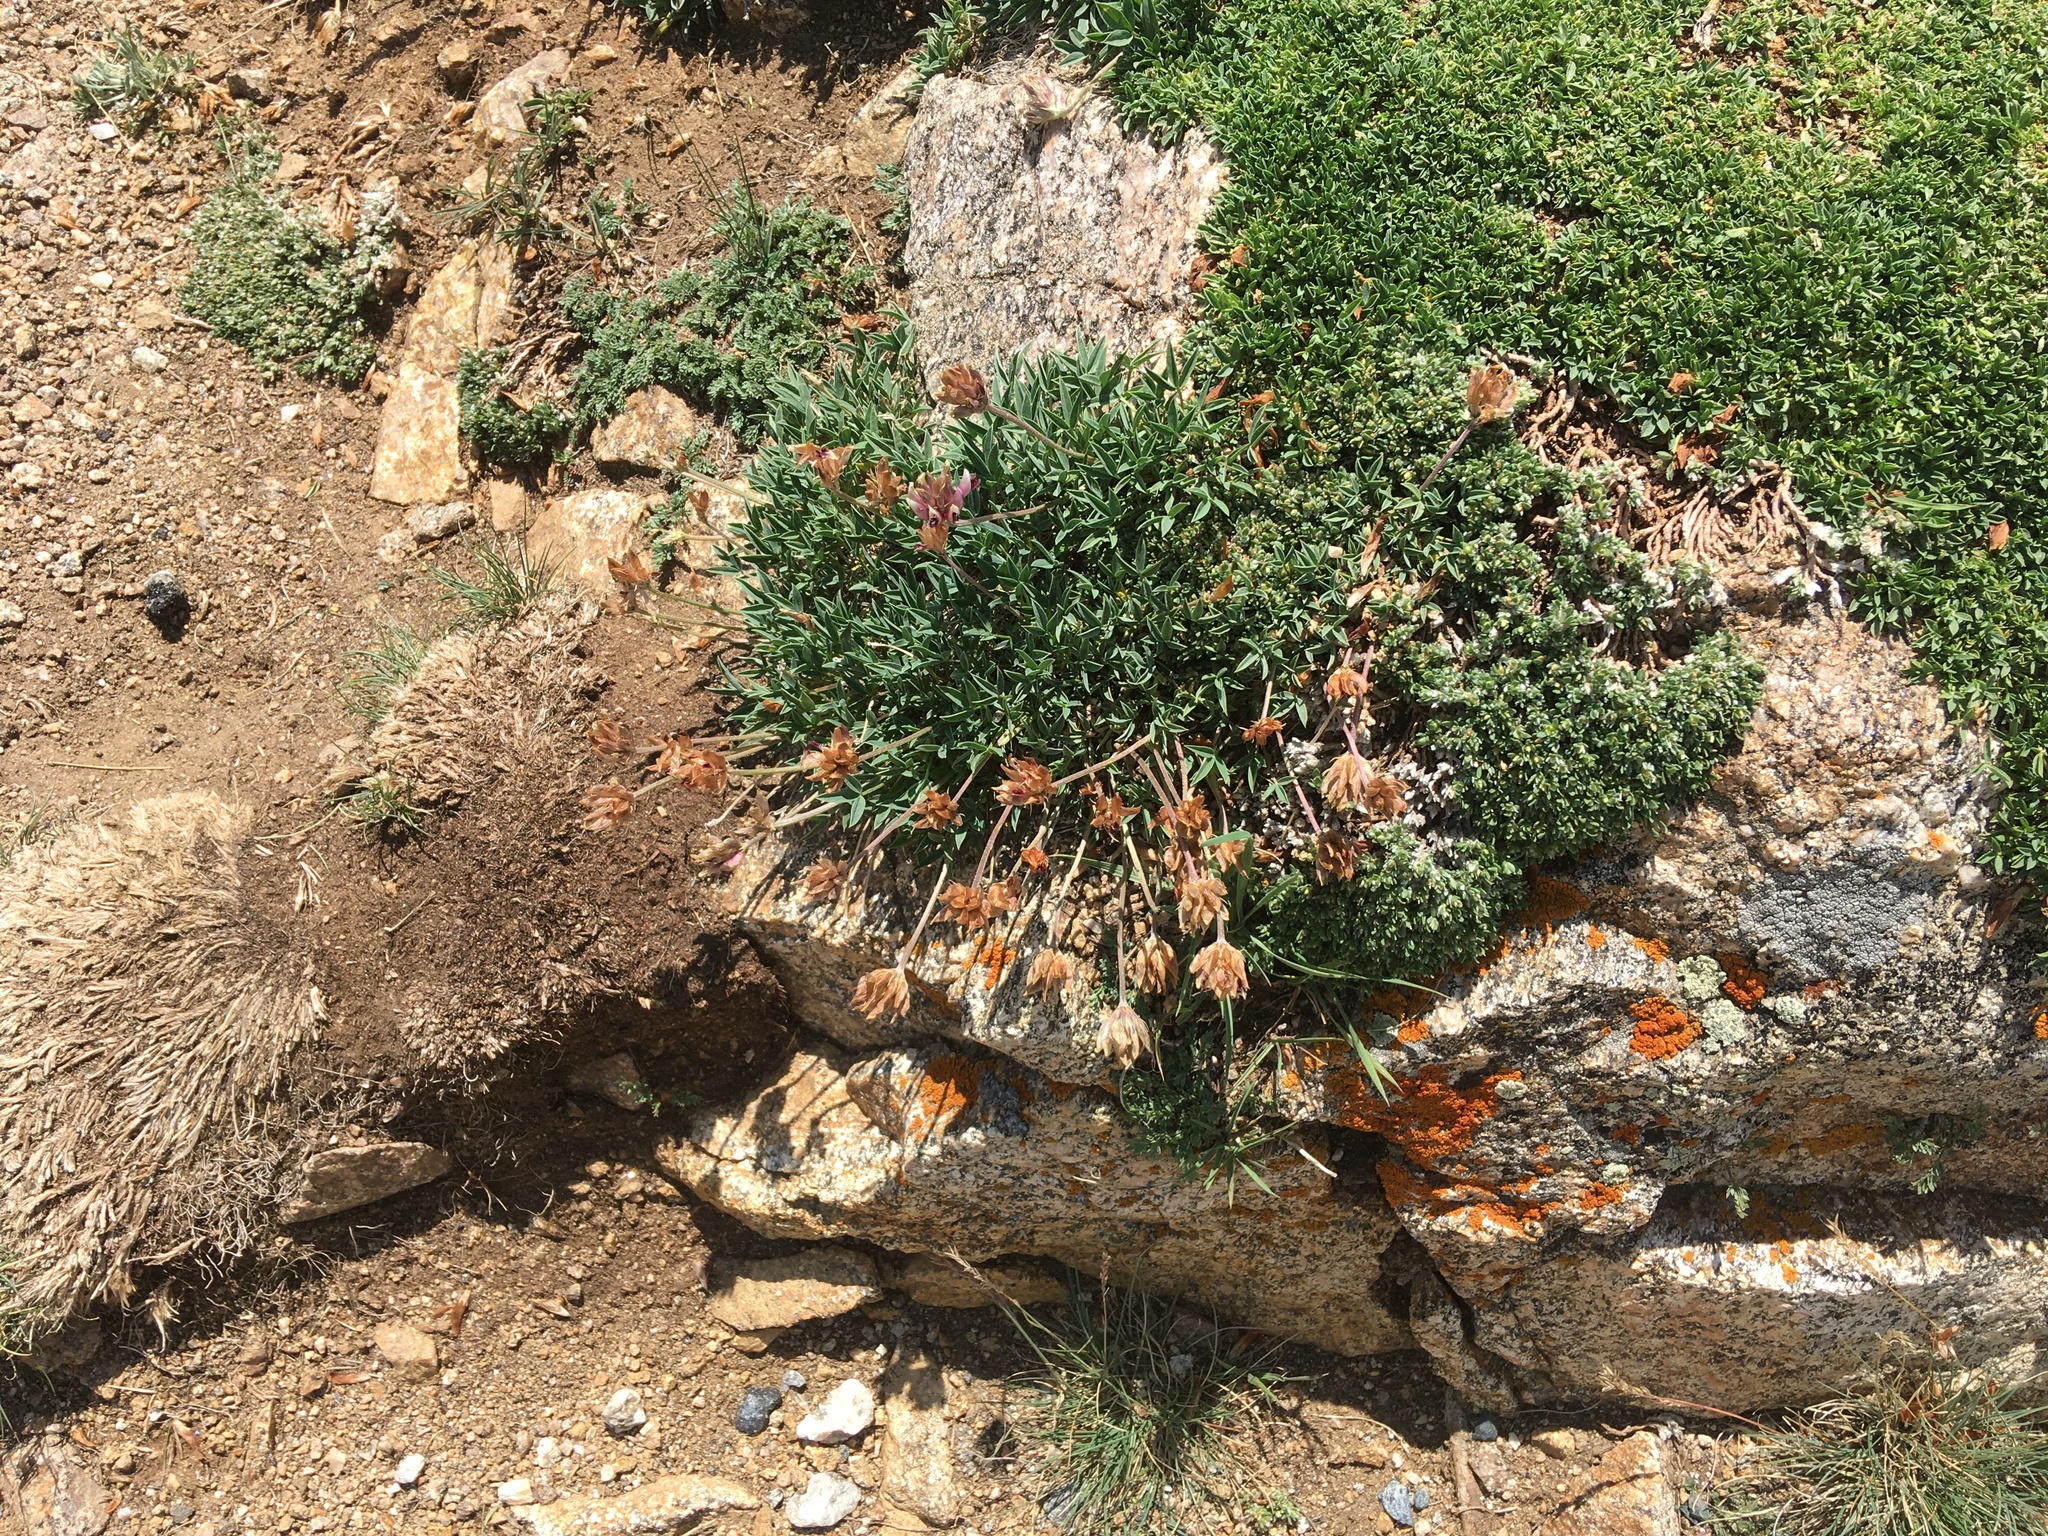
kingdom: Plantae
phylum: Tracheophyta
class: Magnoliopsida
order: Fabales
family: Fabaceae
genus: Trifolium
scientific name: Trifolium dasyphyllum
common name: Whip-root clover
